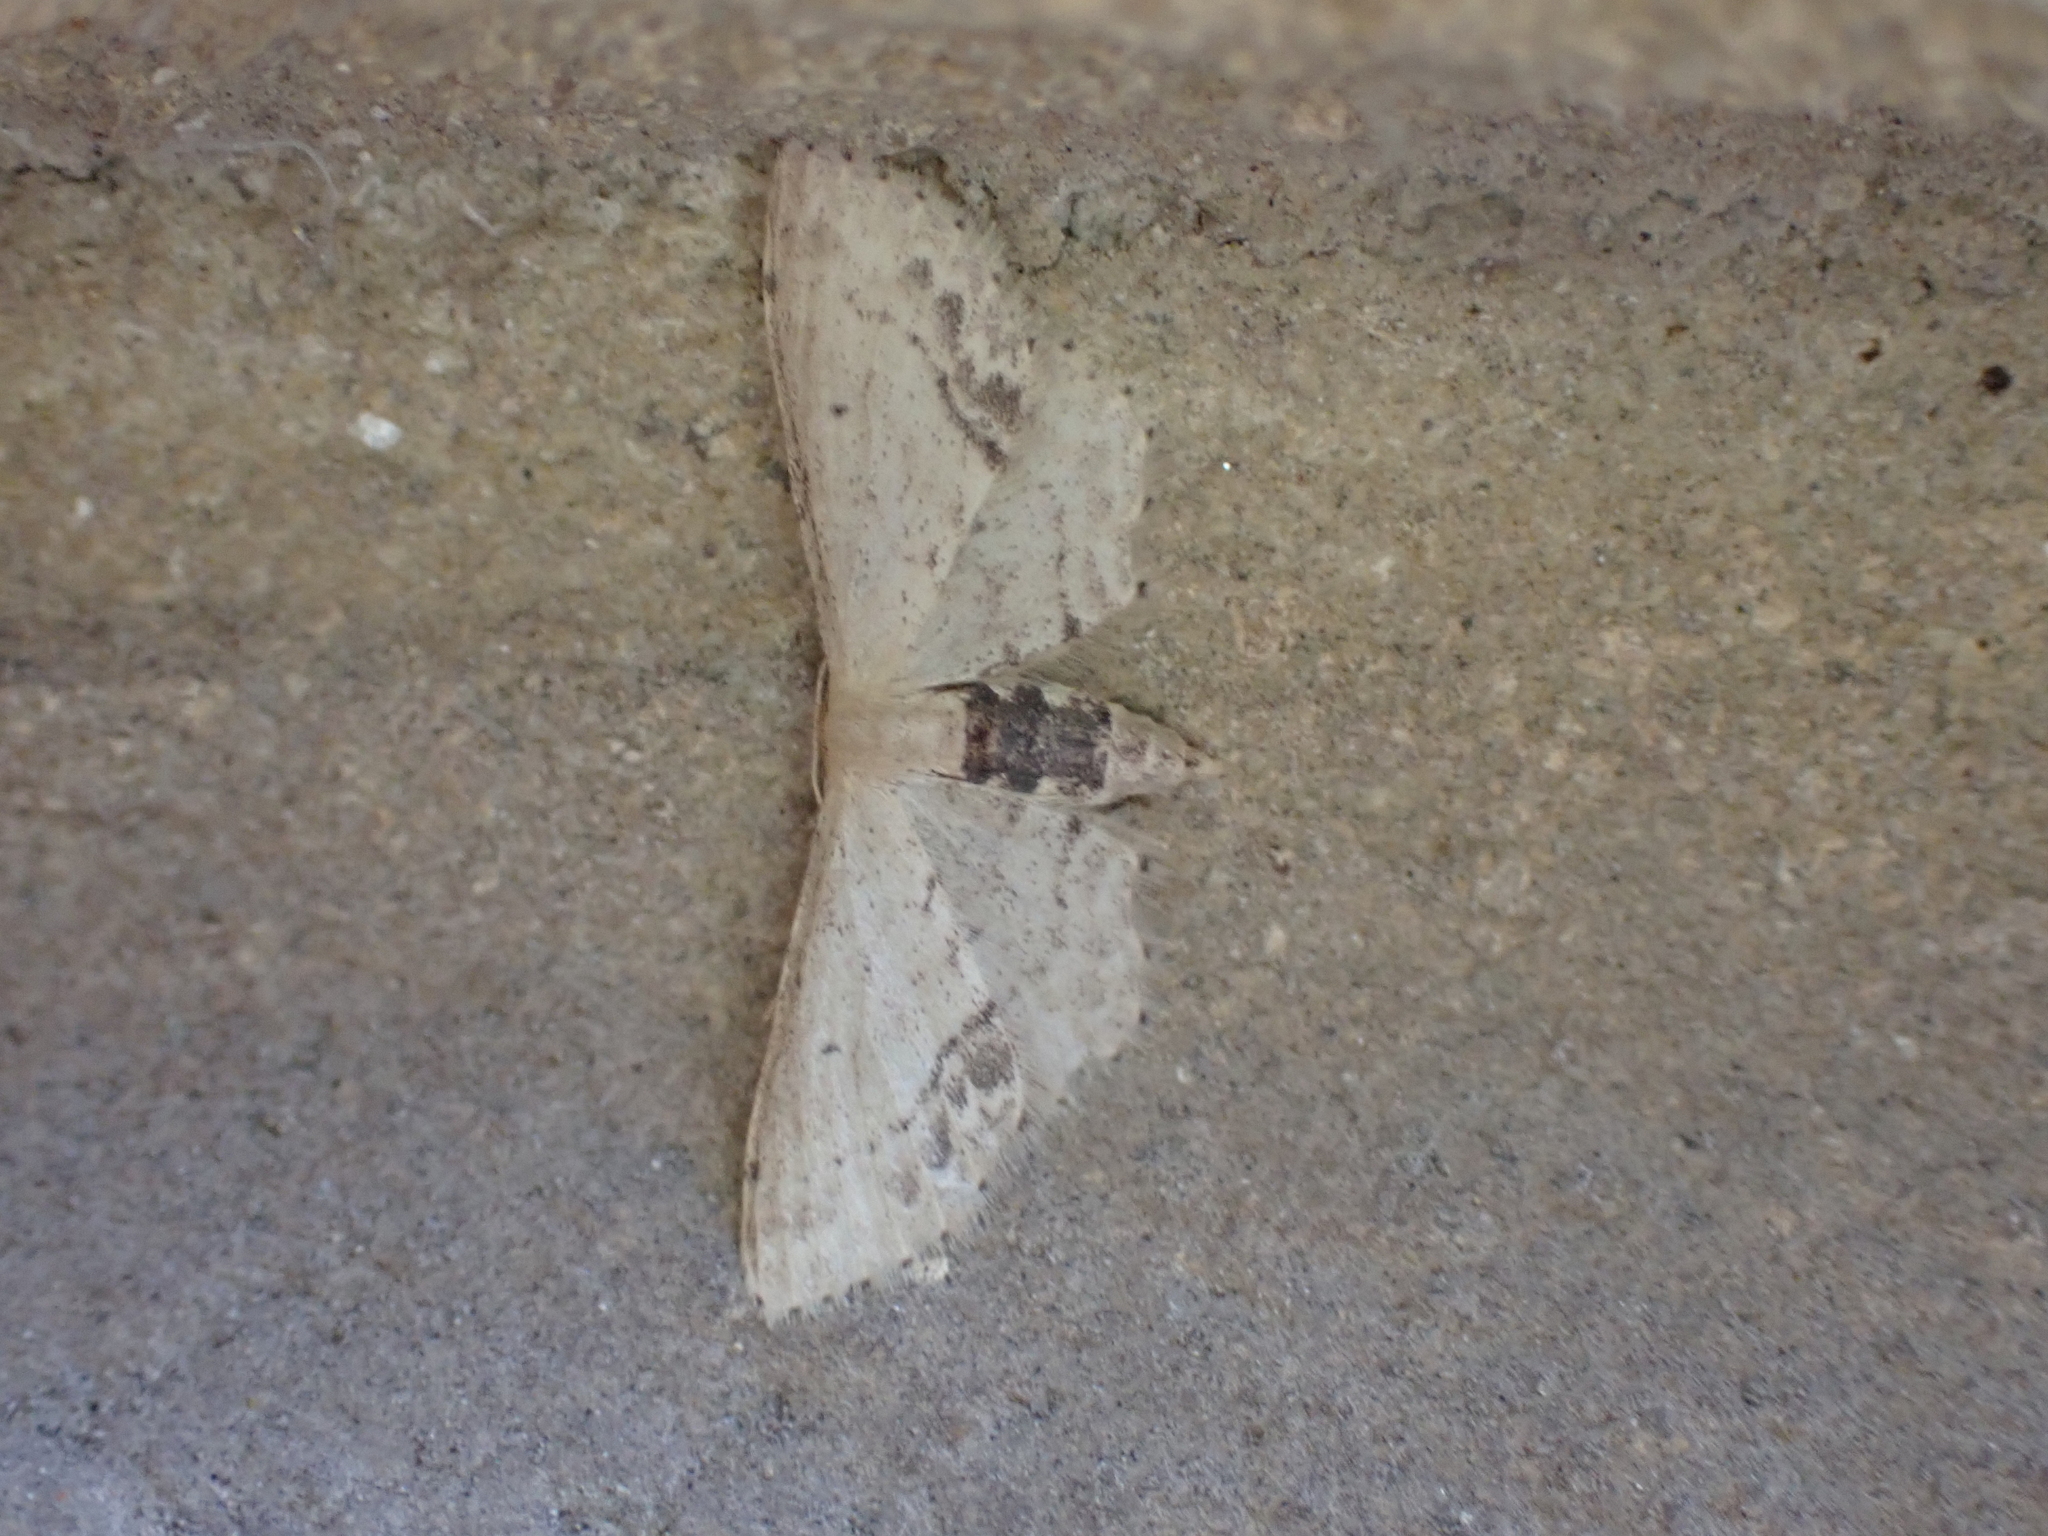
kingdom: Animalia
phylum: Arthropoda
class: Insecta
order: Lepidoptera
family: Geometridae
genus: Idaea
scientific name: Idaea dimidiata
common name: Single-dotted wave
